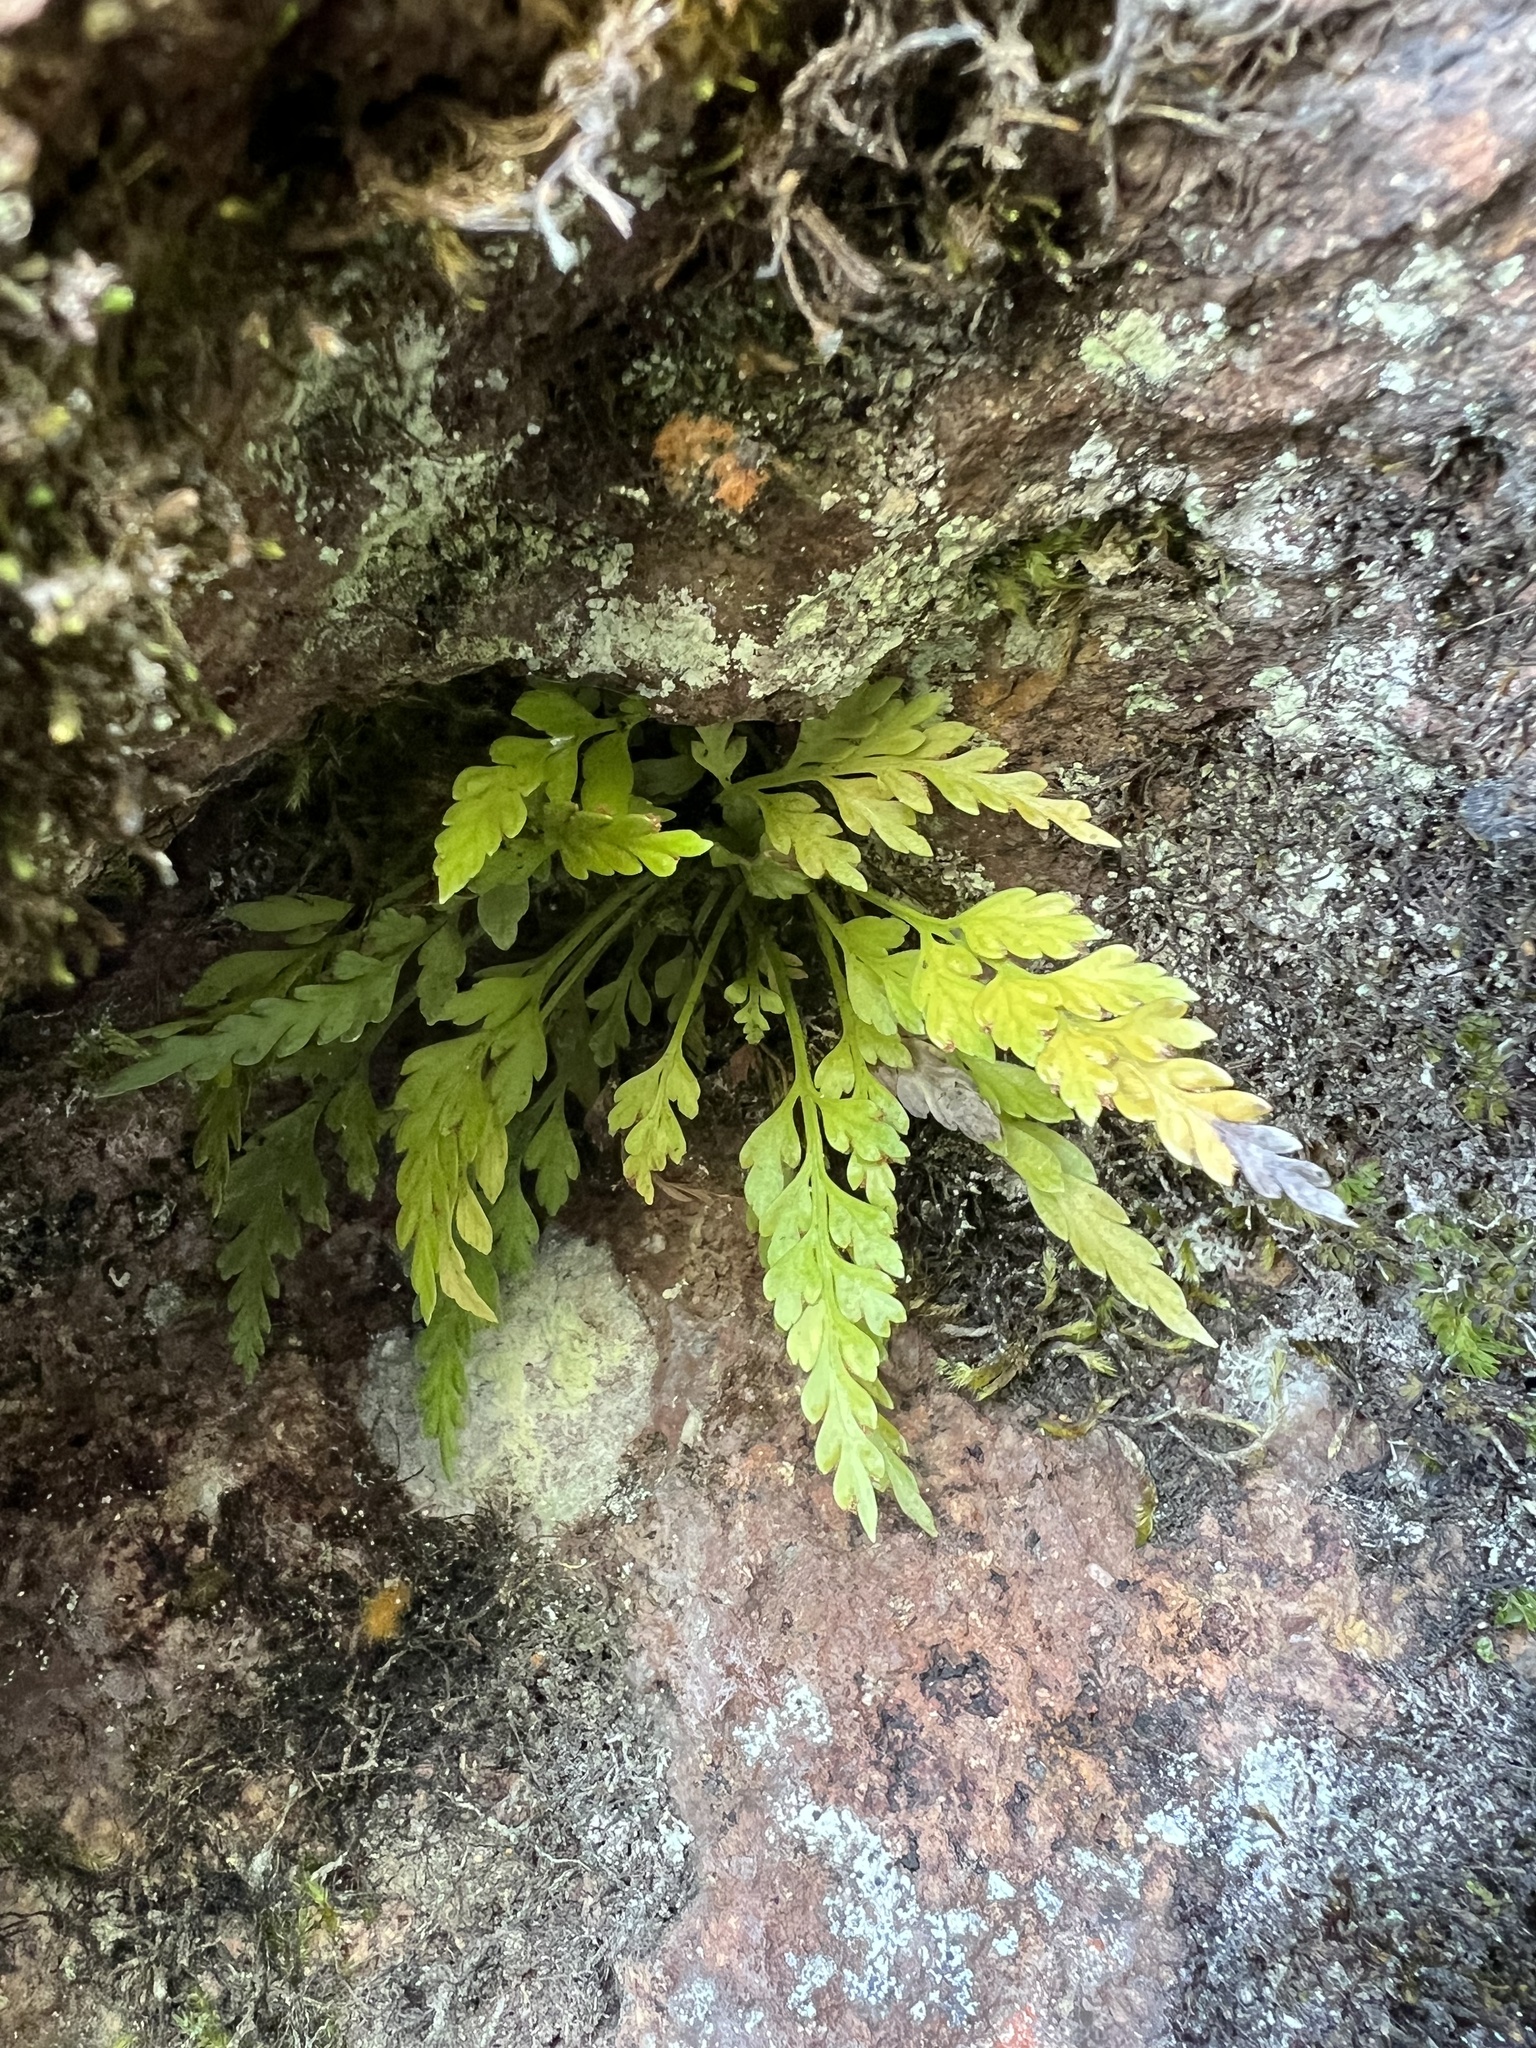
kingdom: Plantae
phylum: Tracheophyta
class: Polypodiopsida
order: Polypodiales
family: Aspleniaceae
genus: Asplenium
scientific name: Asplenium appendiculatum
